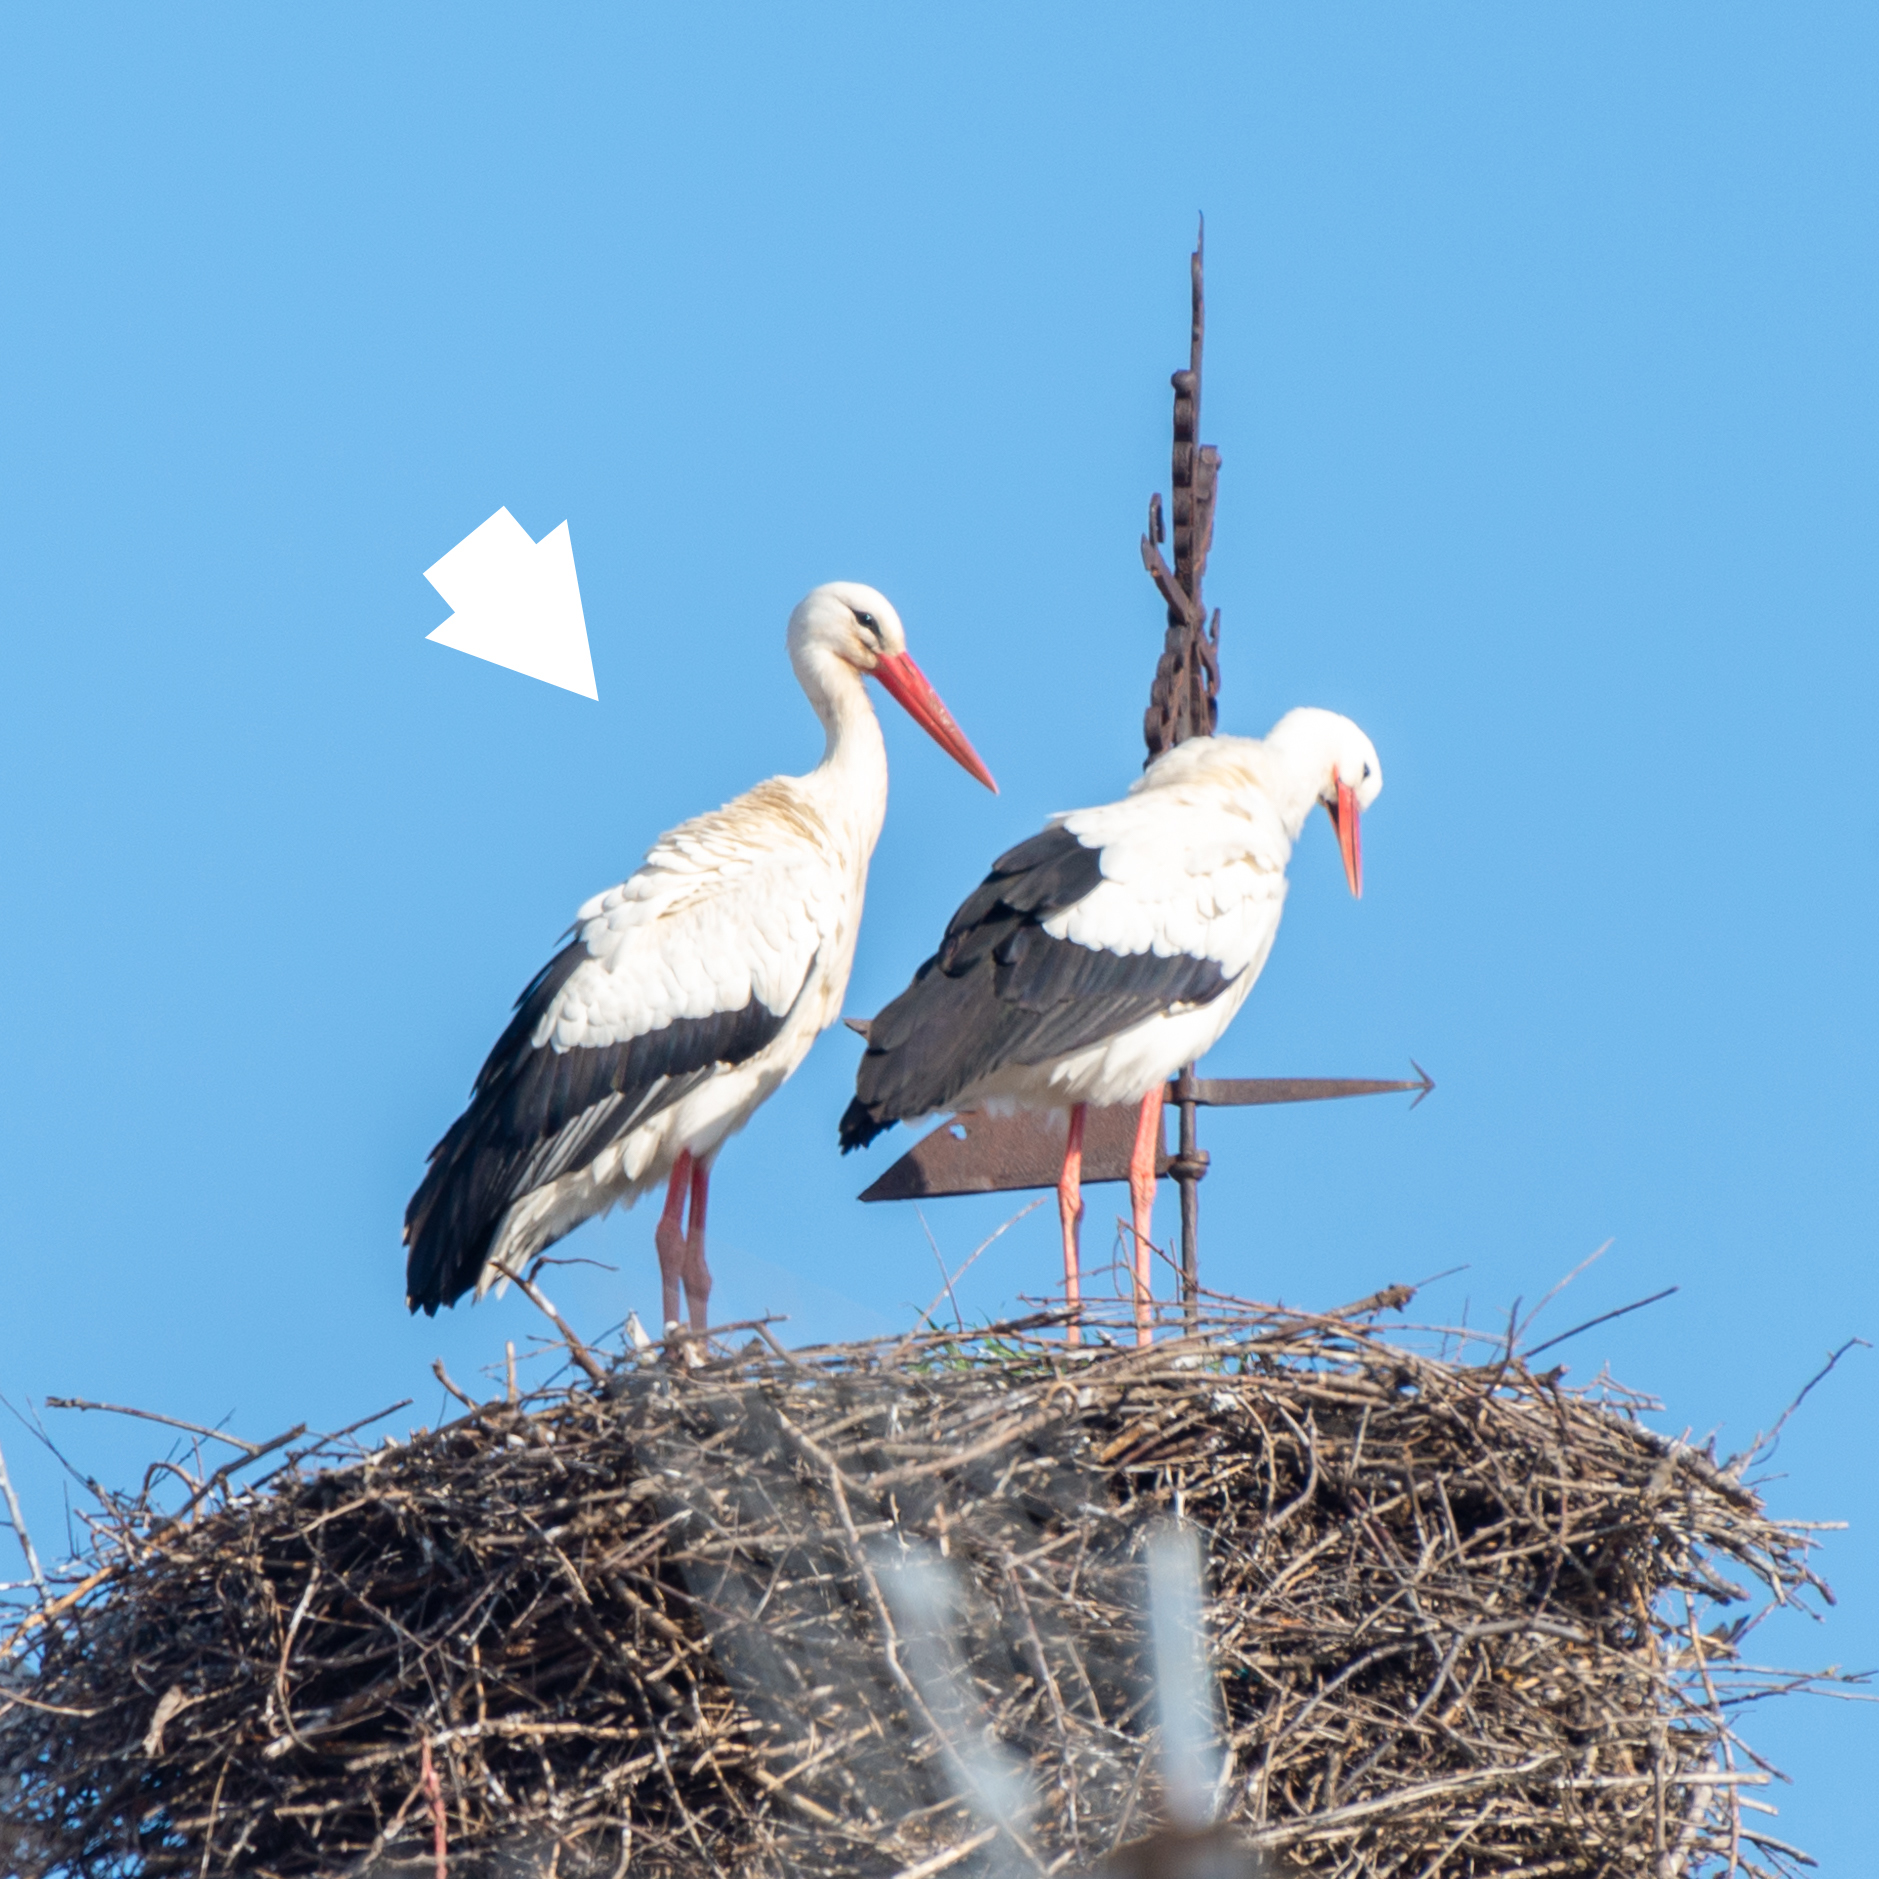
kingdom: Animalia
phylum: Chordata
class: Aves
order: Ciconiiformes
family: Ciconiidae
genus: Ciconia
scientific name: Ciconia ciconia
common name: White stork
